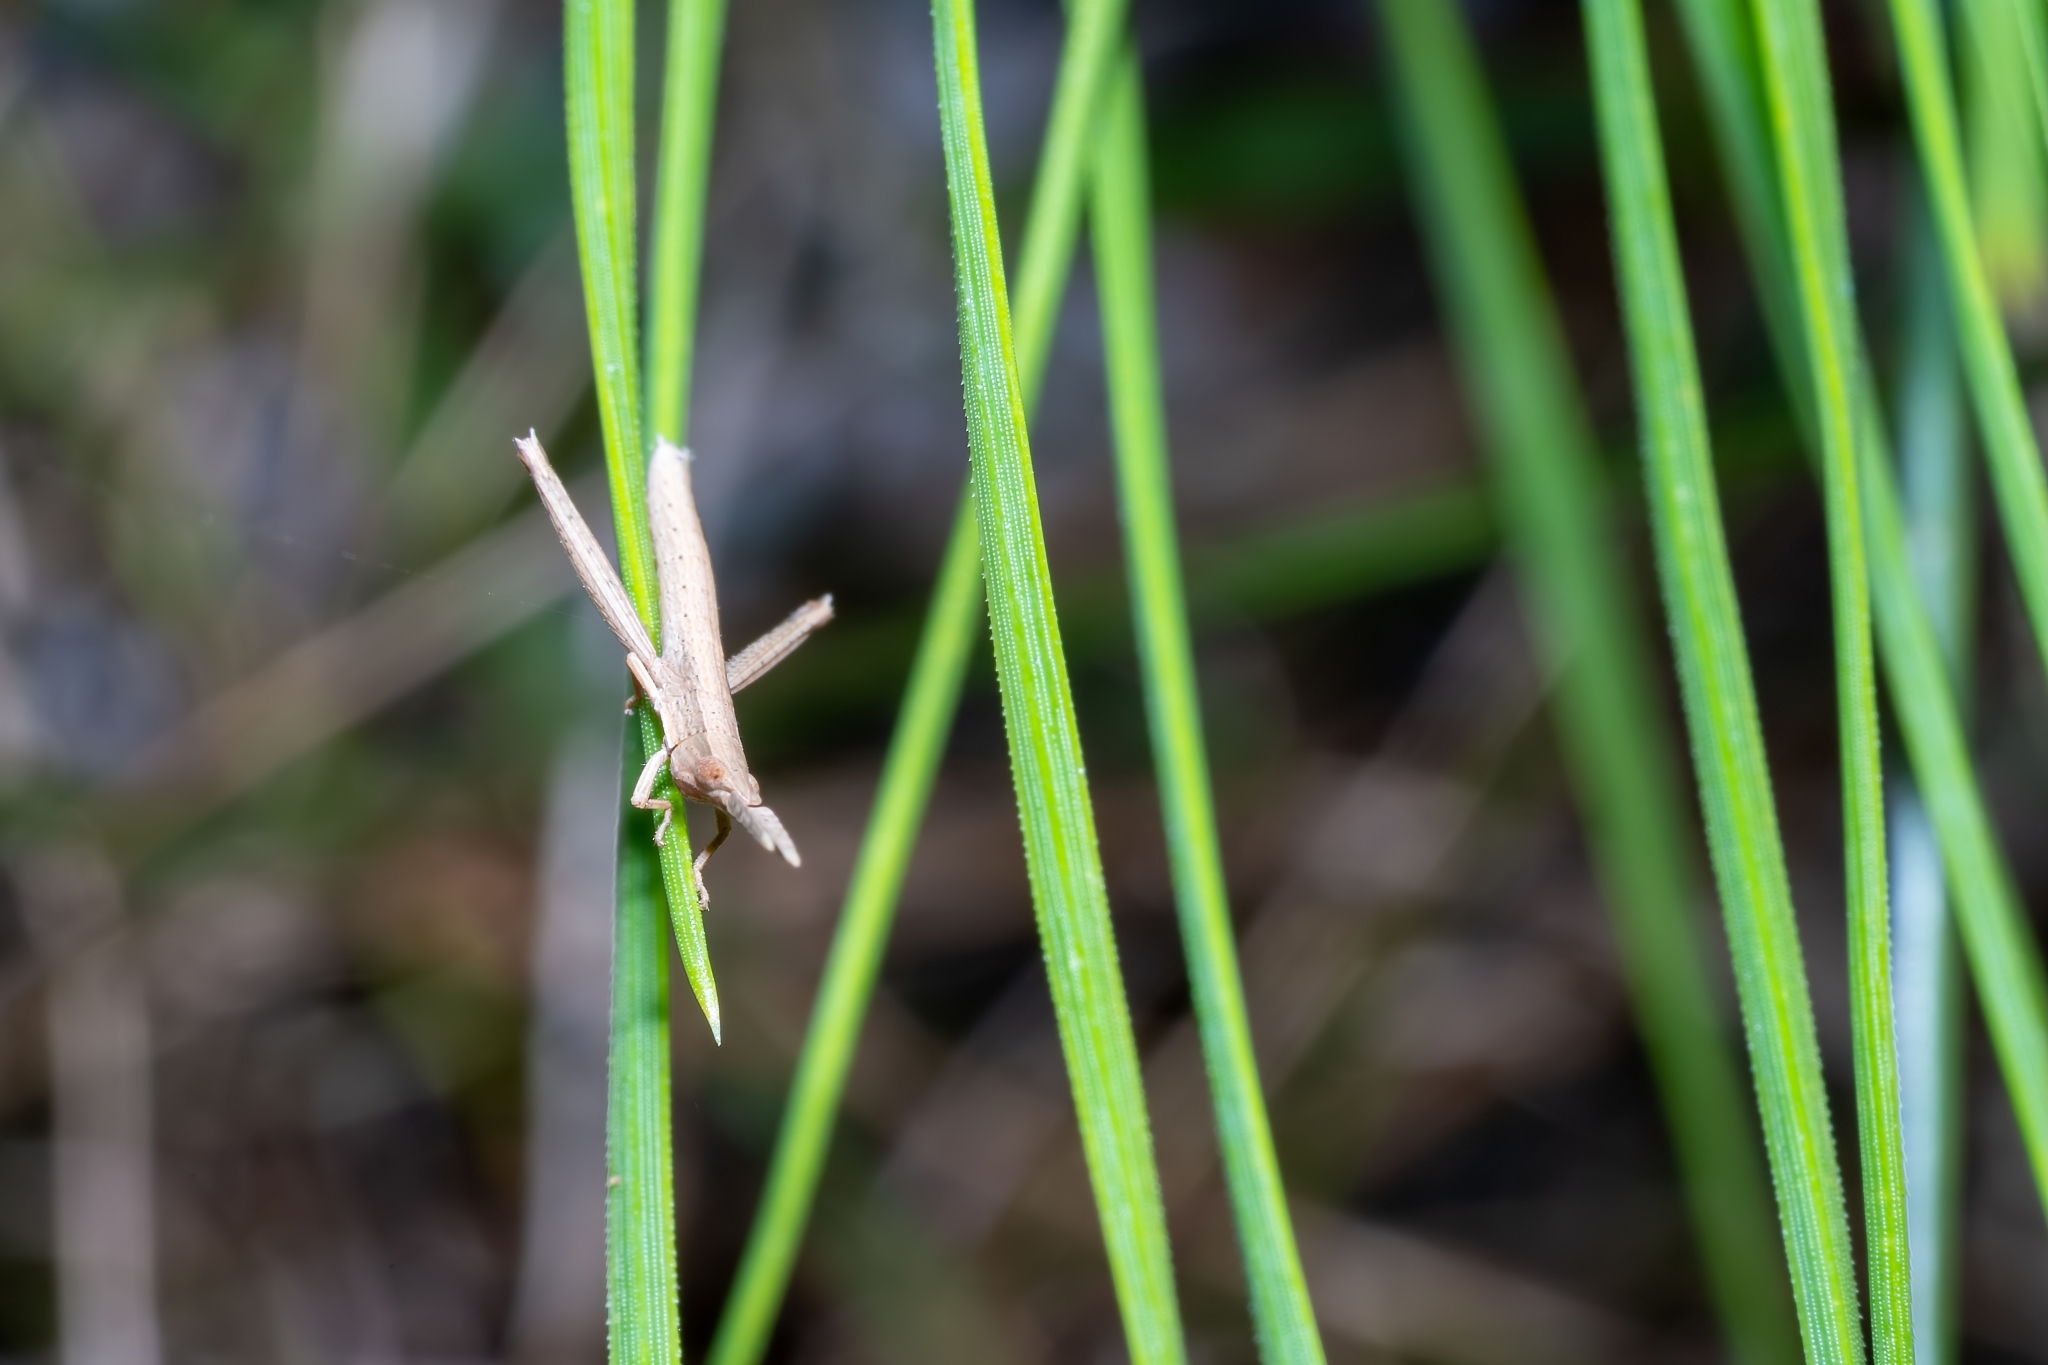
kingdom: Animalia
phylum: Arthropoda
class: Insecta
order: Orthoptera
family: Acrididae
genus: Achurum
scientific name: Achurum carinatum
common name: Long-headed toothpick grasshopper
